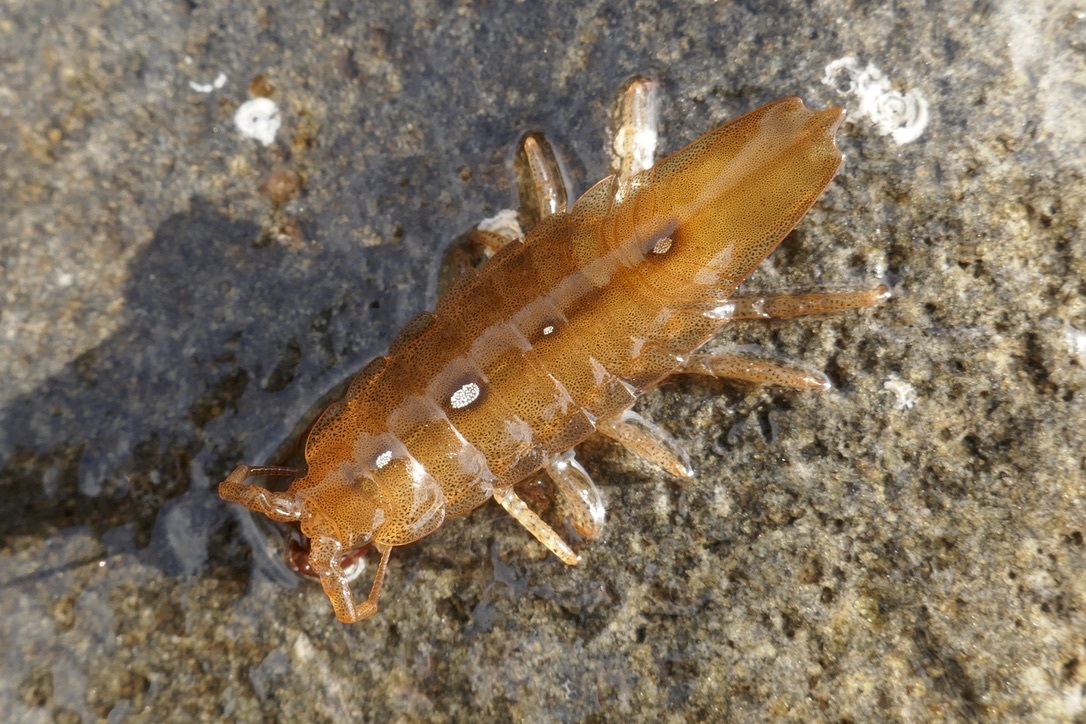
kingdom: Animalia
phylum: Arthropoda
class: Malacostraca
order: Isopoda
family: Idoteidae
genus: Idotea
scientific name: Idotea balthica
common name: Baltic isopod
